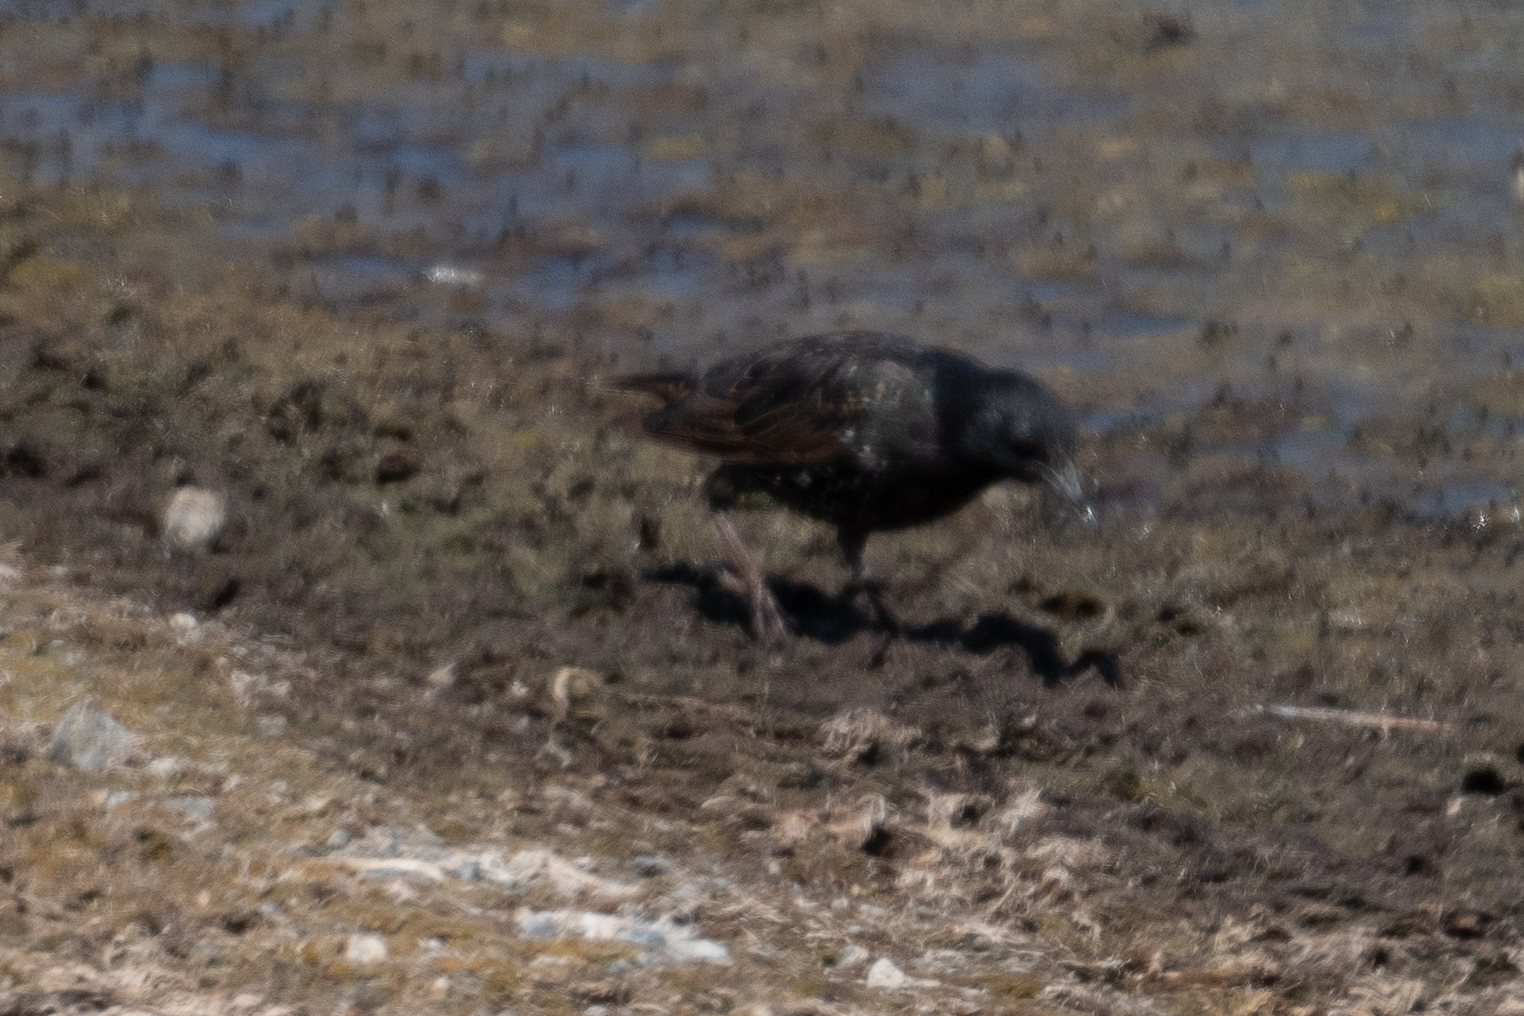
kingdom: Animalia
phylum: Chordata
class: Aves
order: Passeriformes
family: Sturnidae
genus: Sturnus
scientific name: Sturnus vulgaris
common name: Common starling
